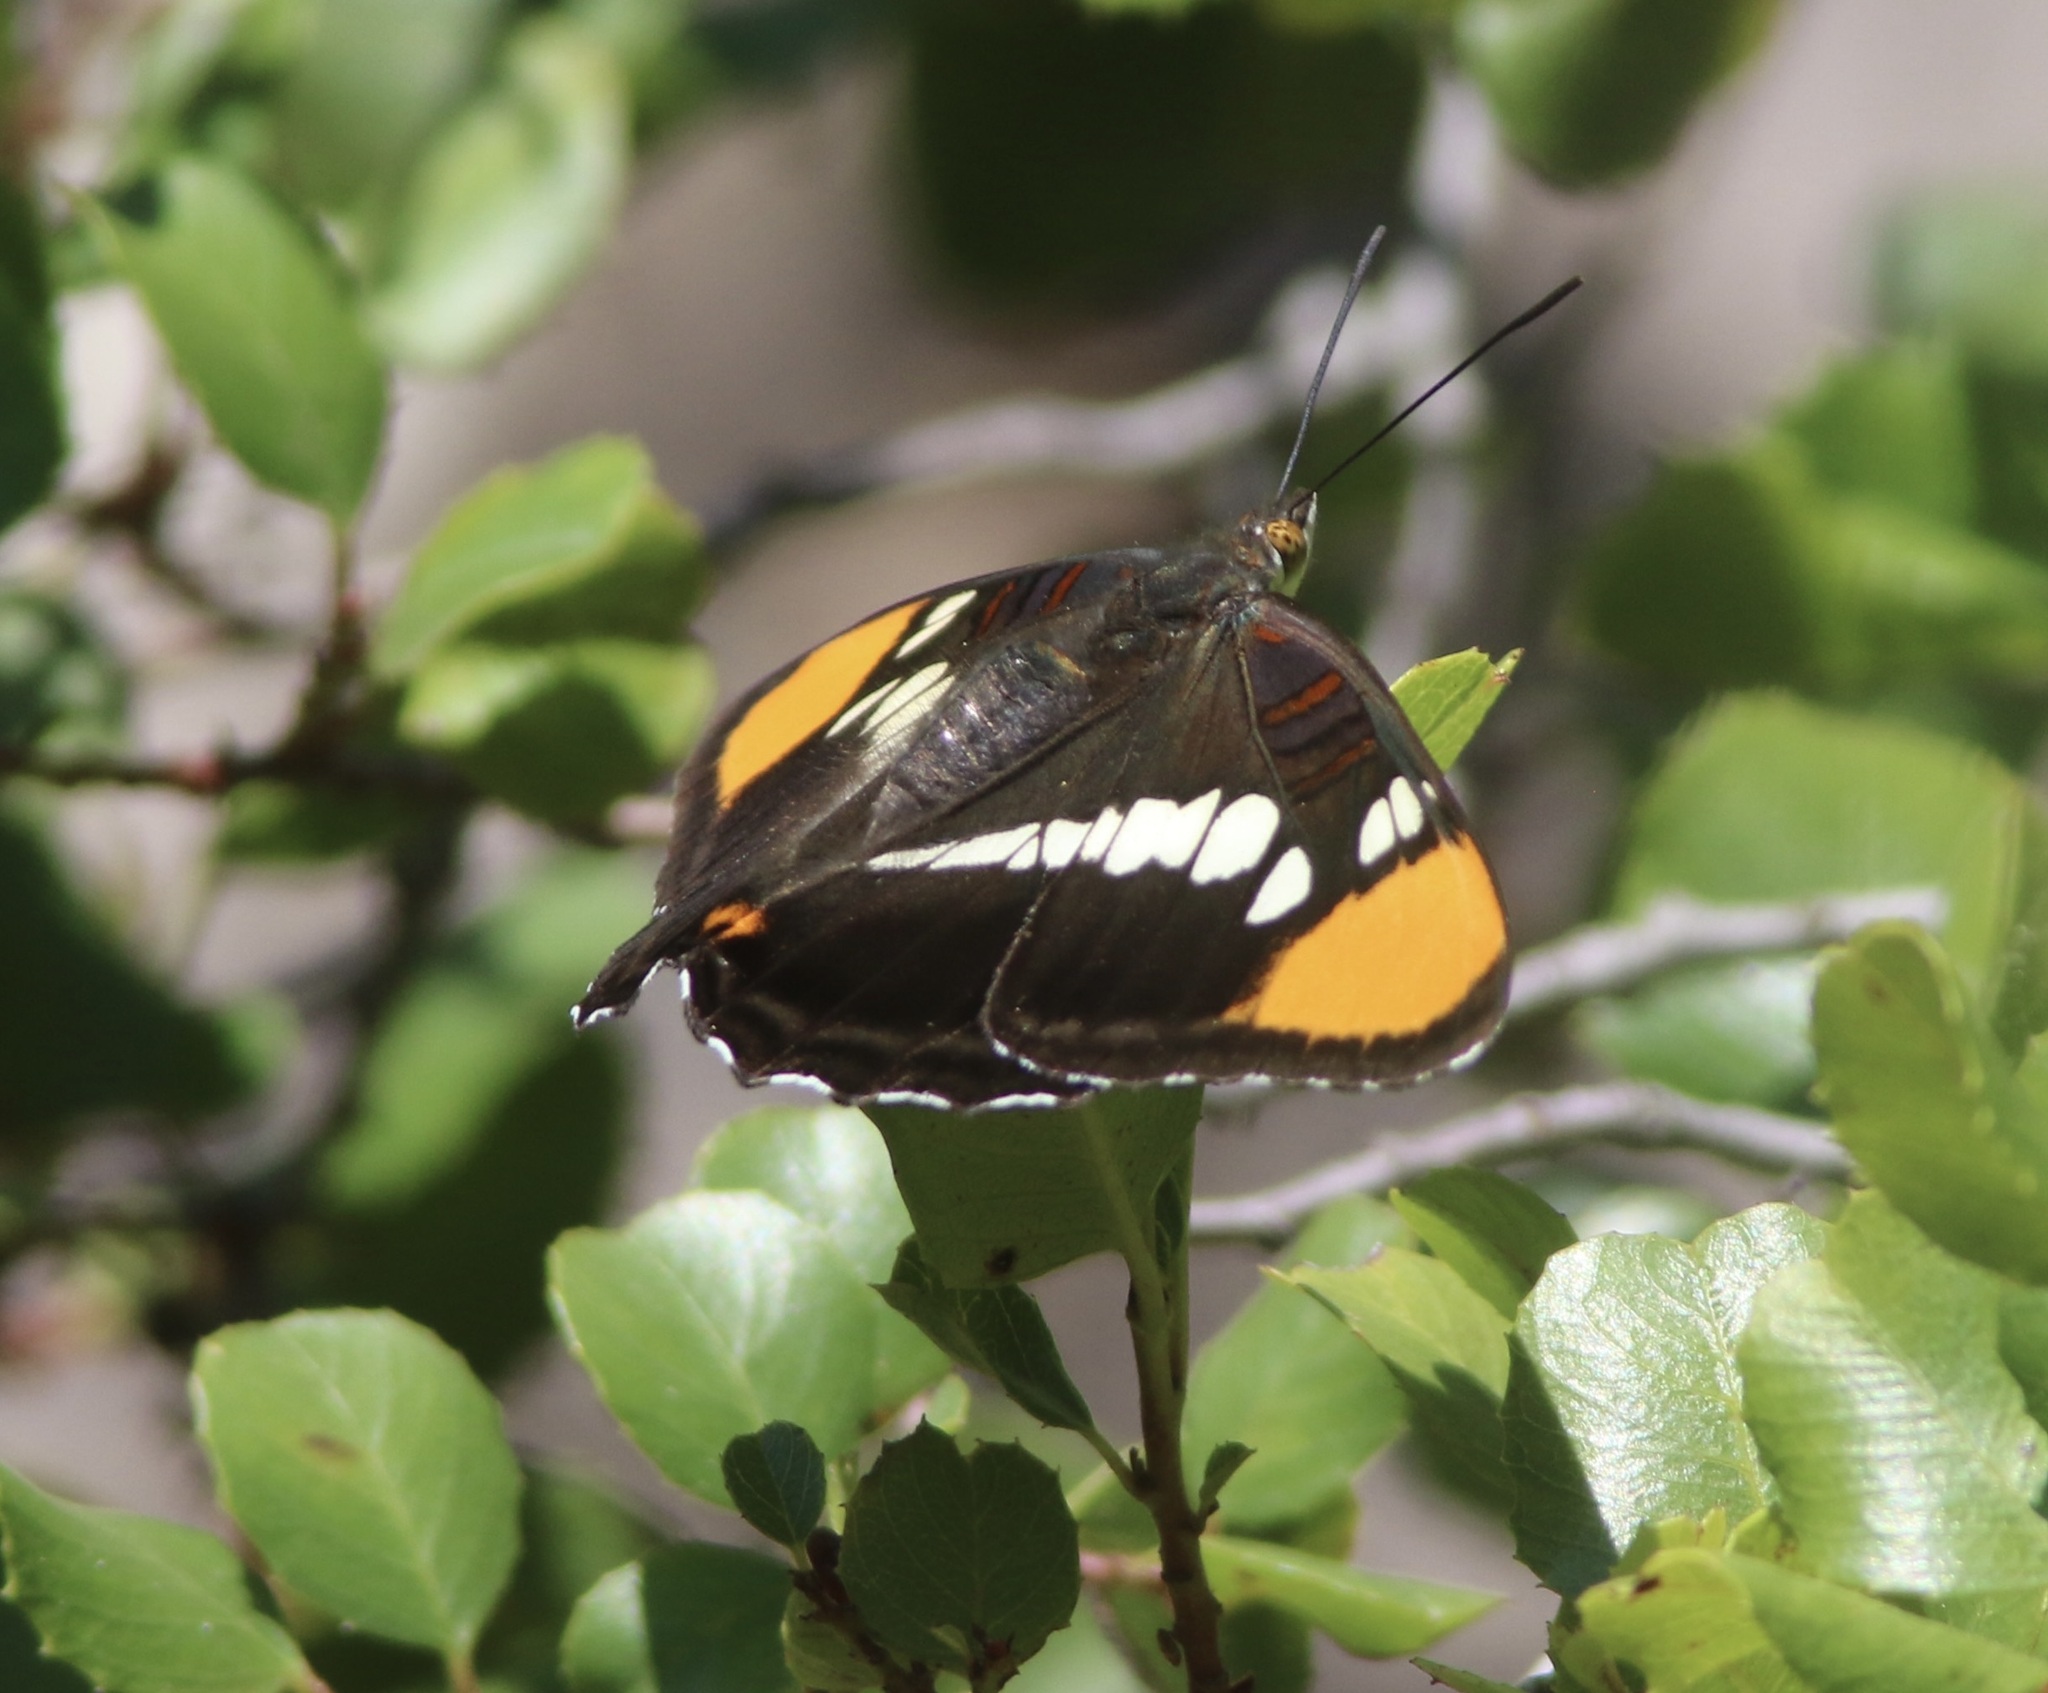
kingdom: Animalia
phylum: Arthropoda
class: Insecta
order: Lepidoptera
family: Nymphalidae
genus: Limenitis
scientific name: Limenitis bredowii
